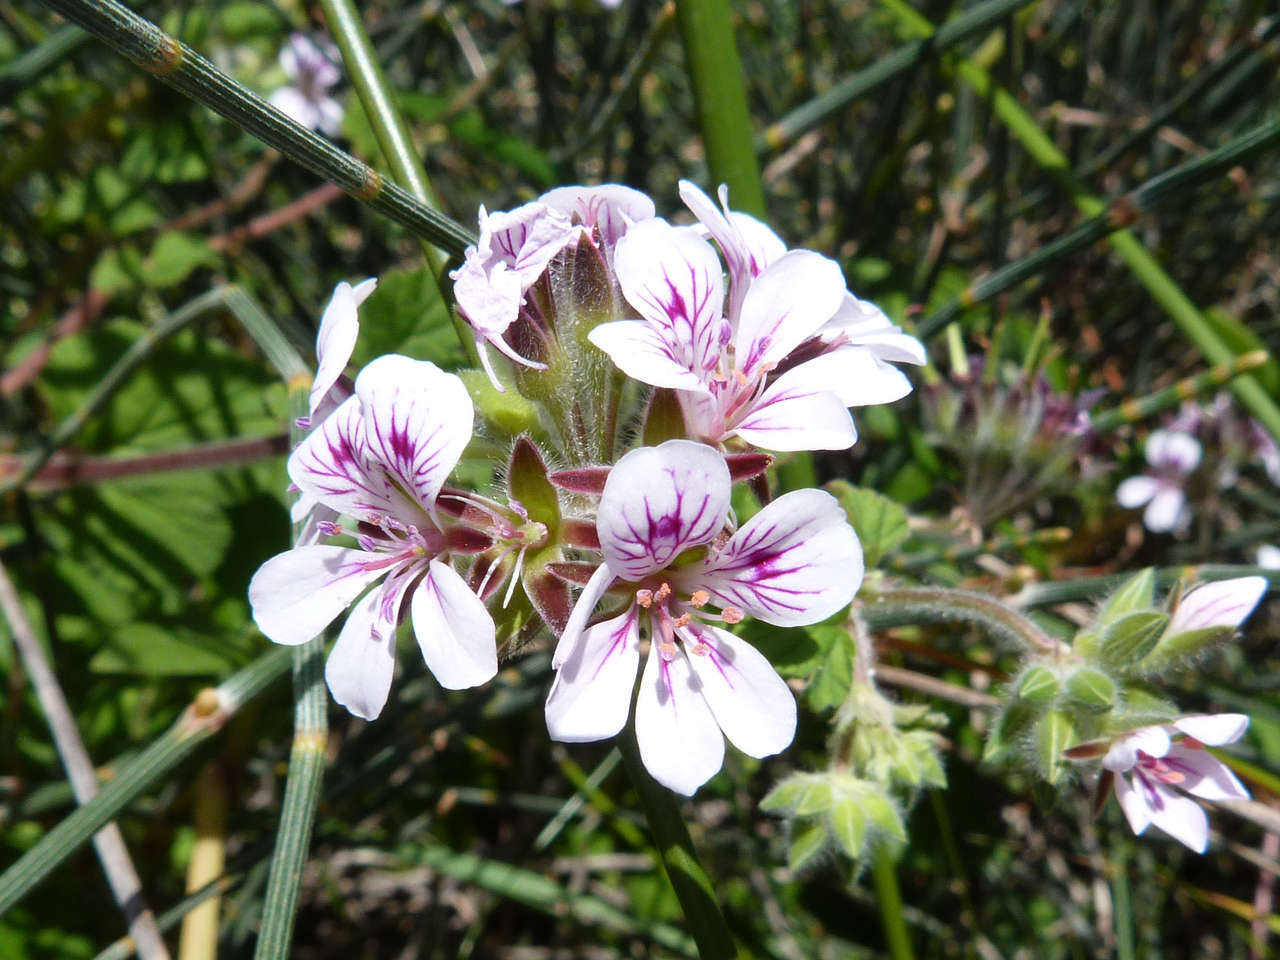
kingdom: Plantae
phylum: Tracheophyta
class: Magnoliopsida
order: Geraniales
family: Geraniaceae
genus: Pelargonium
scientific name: Pelargonium australe
